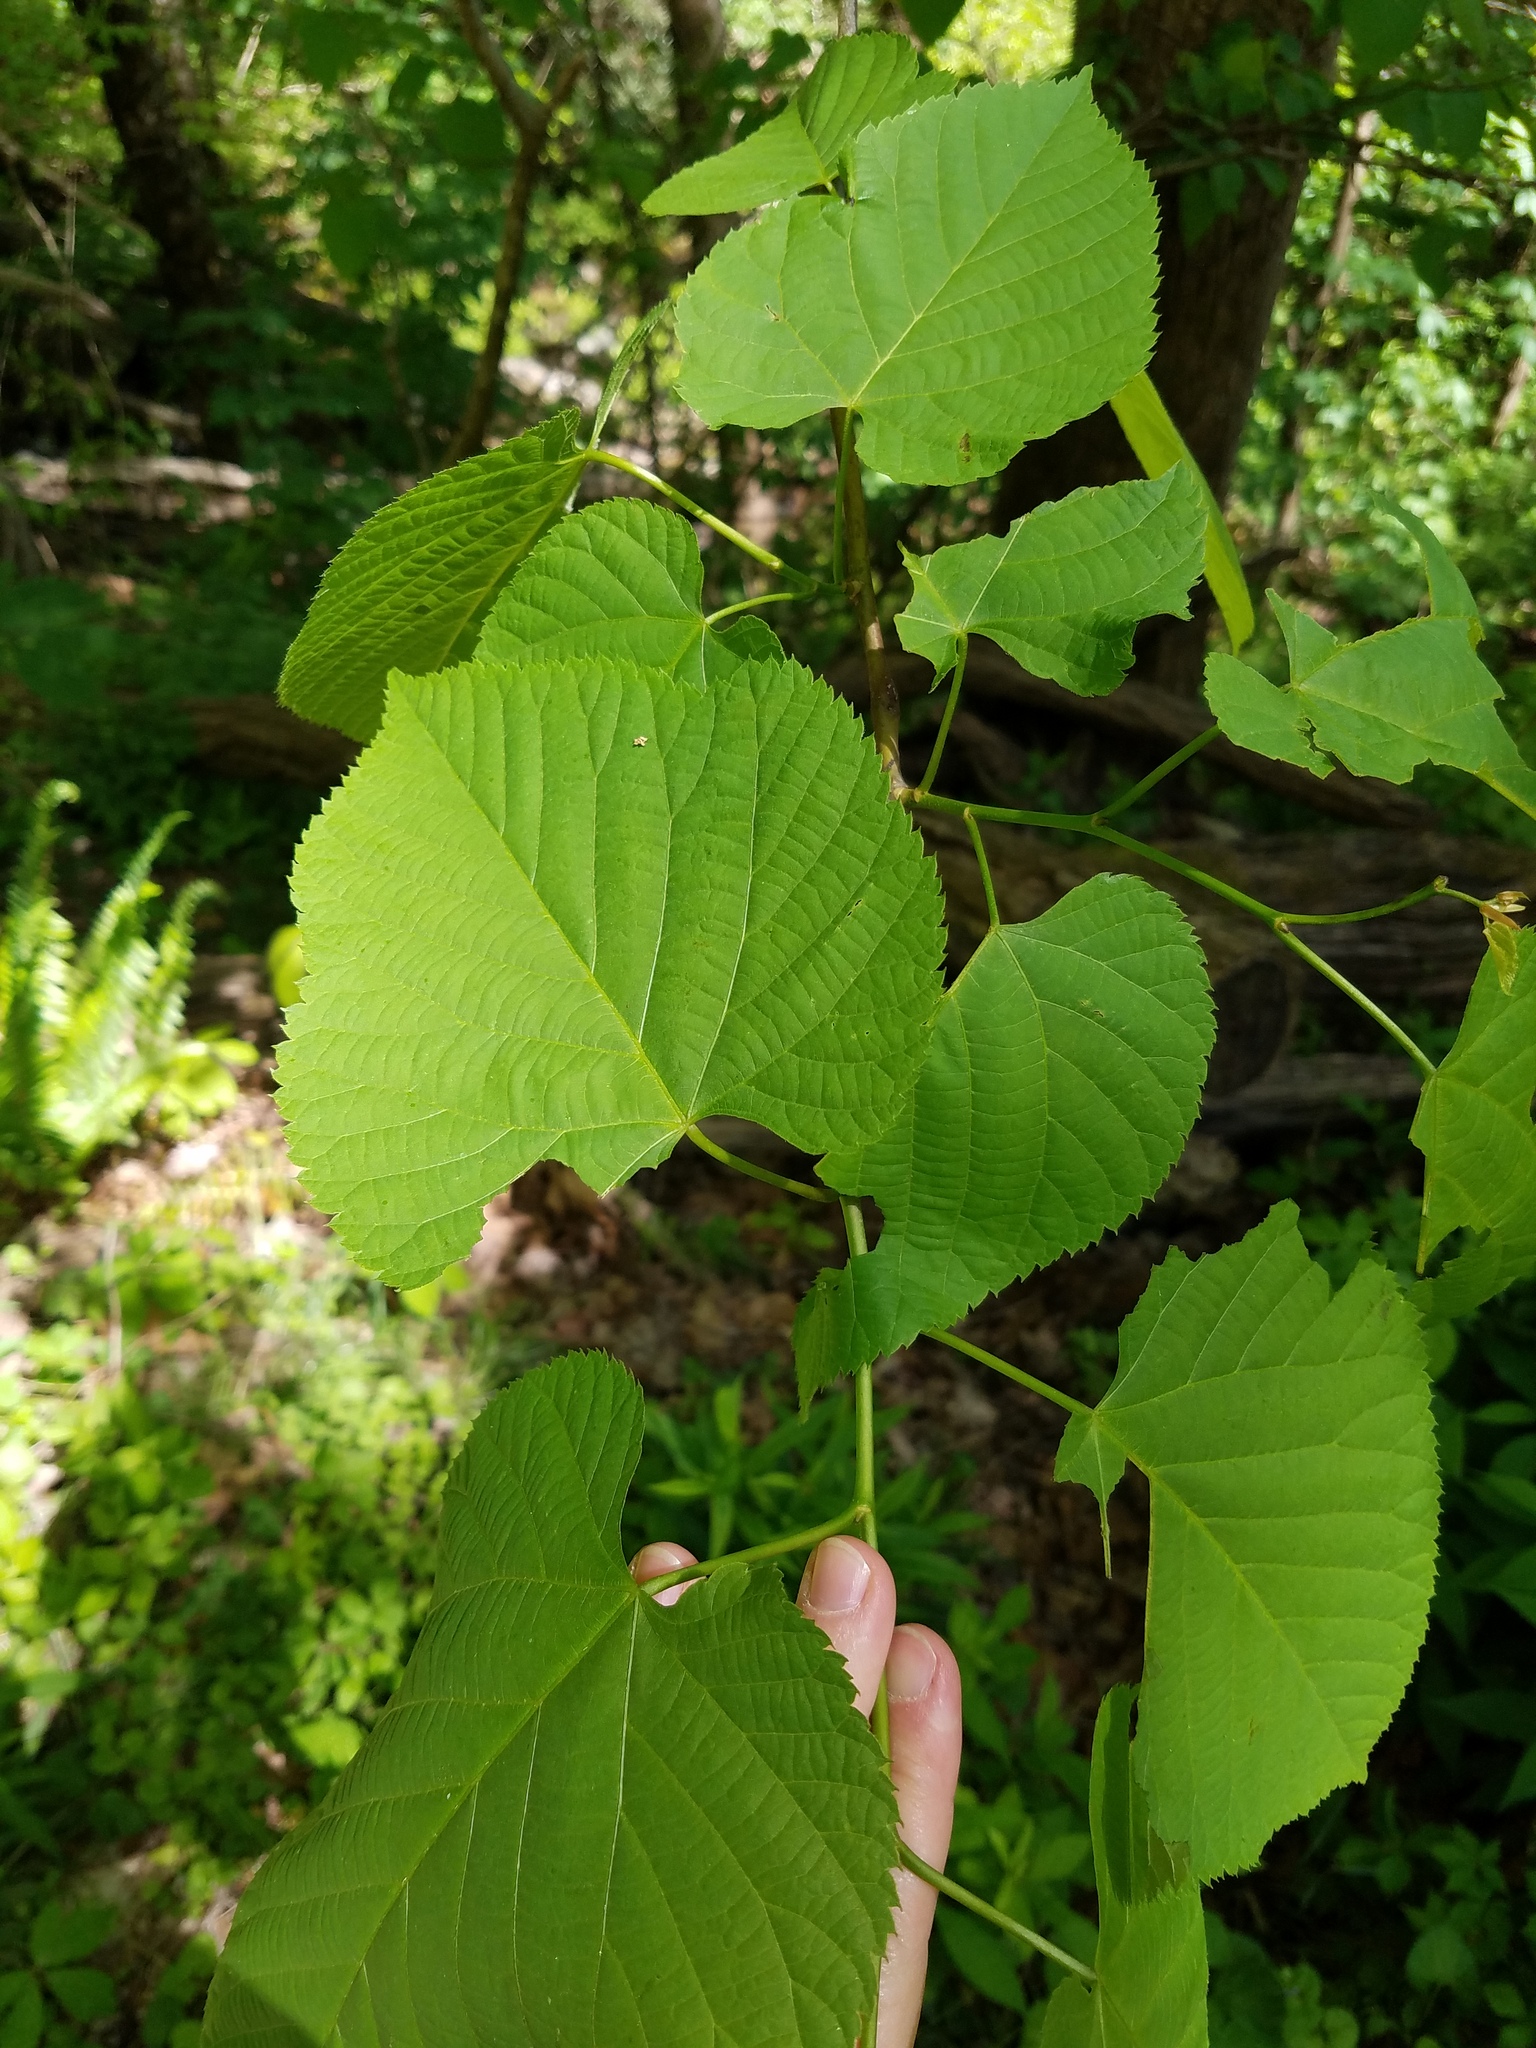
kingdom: Plantae
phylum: Tracheophyta
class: Magnoliopsida
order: Malvales
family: Malvaceae
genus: Tilia
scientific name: Tilia americana
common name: Basswood
